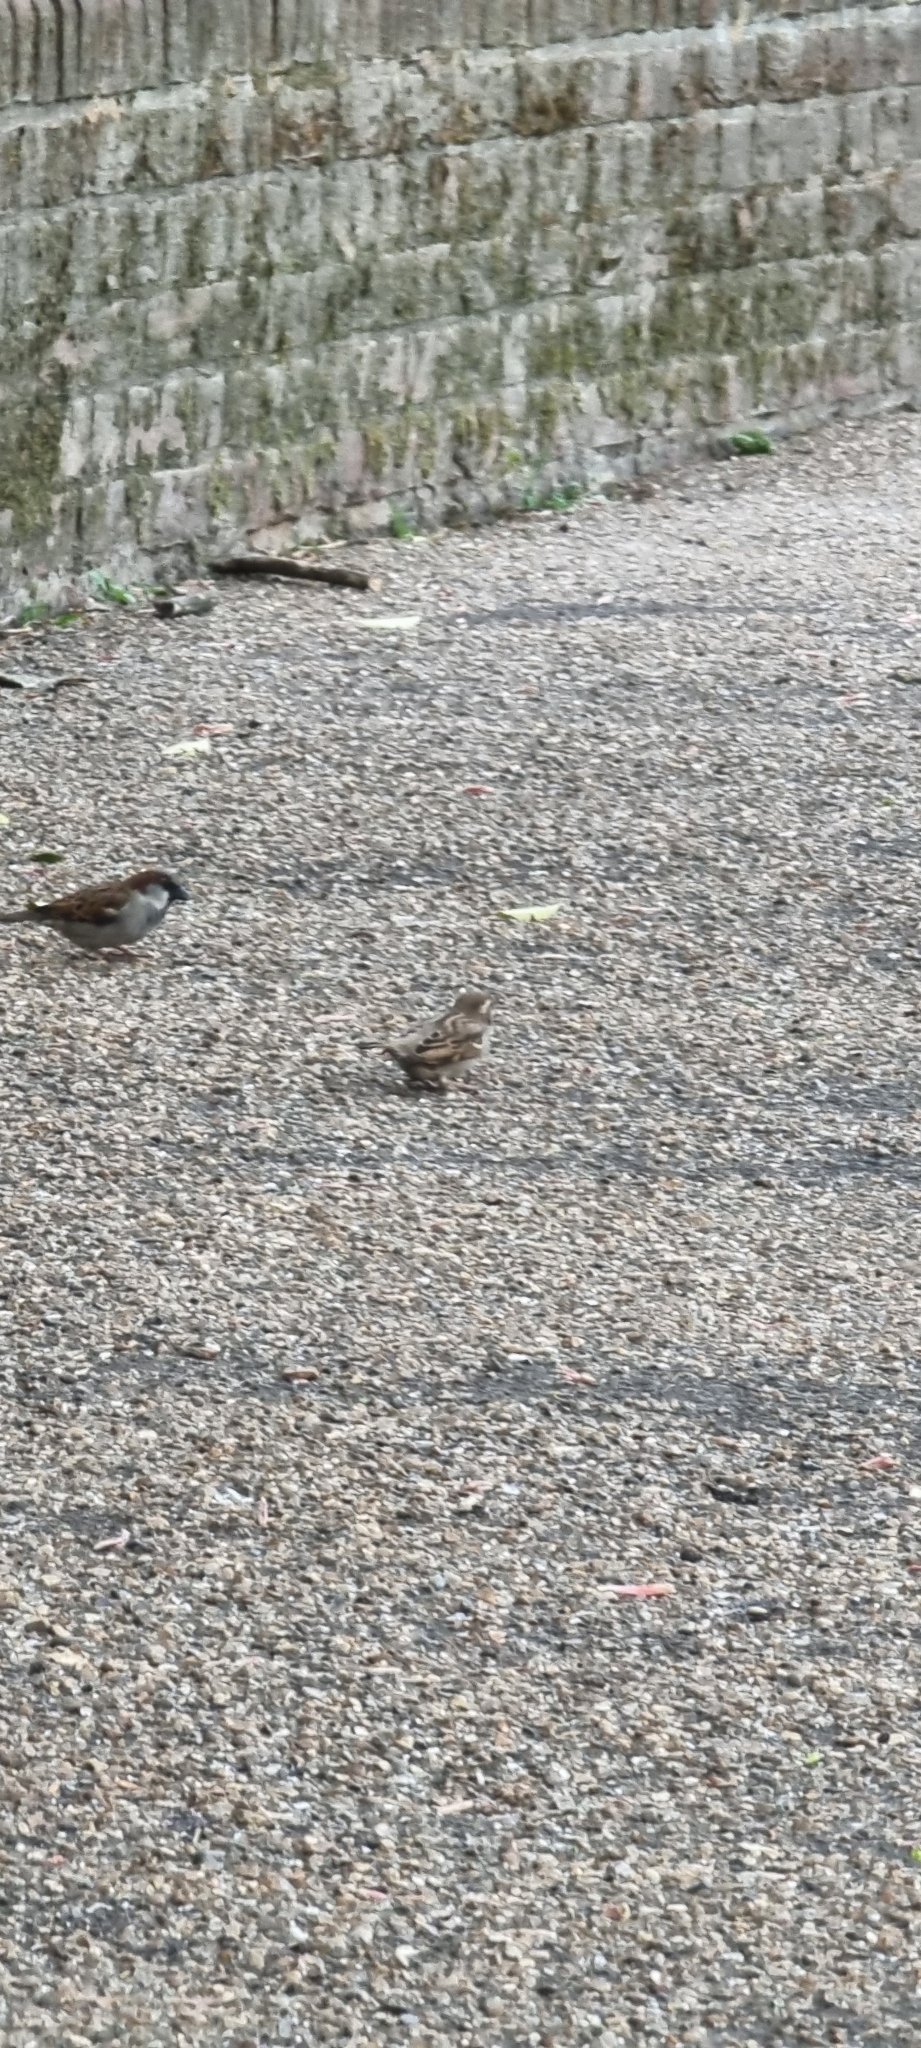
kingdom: Animalia
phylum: Chordata
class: Aves
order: Passeriformes
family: Passeridae
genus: Passer
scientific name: Passer domesticus
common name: House sparrow
